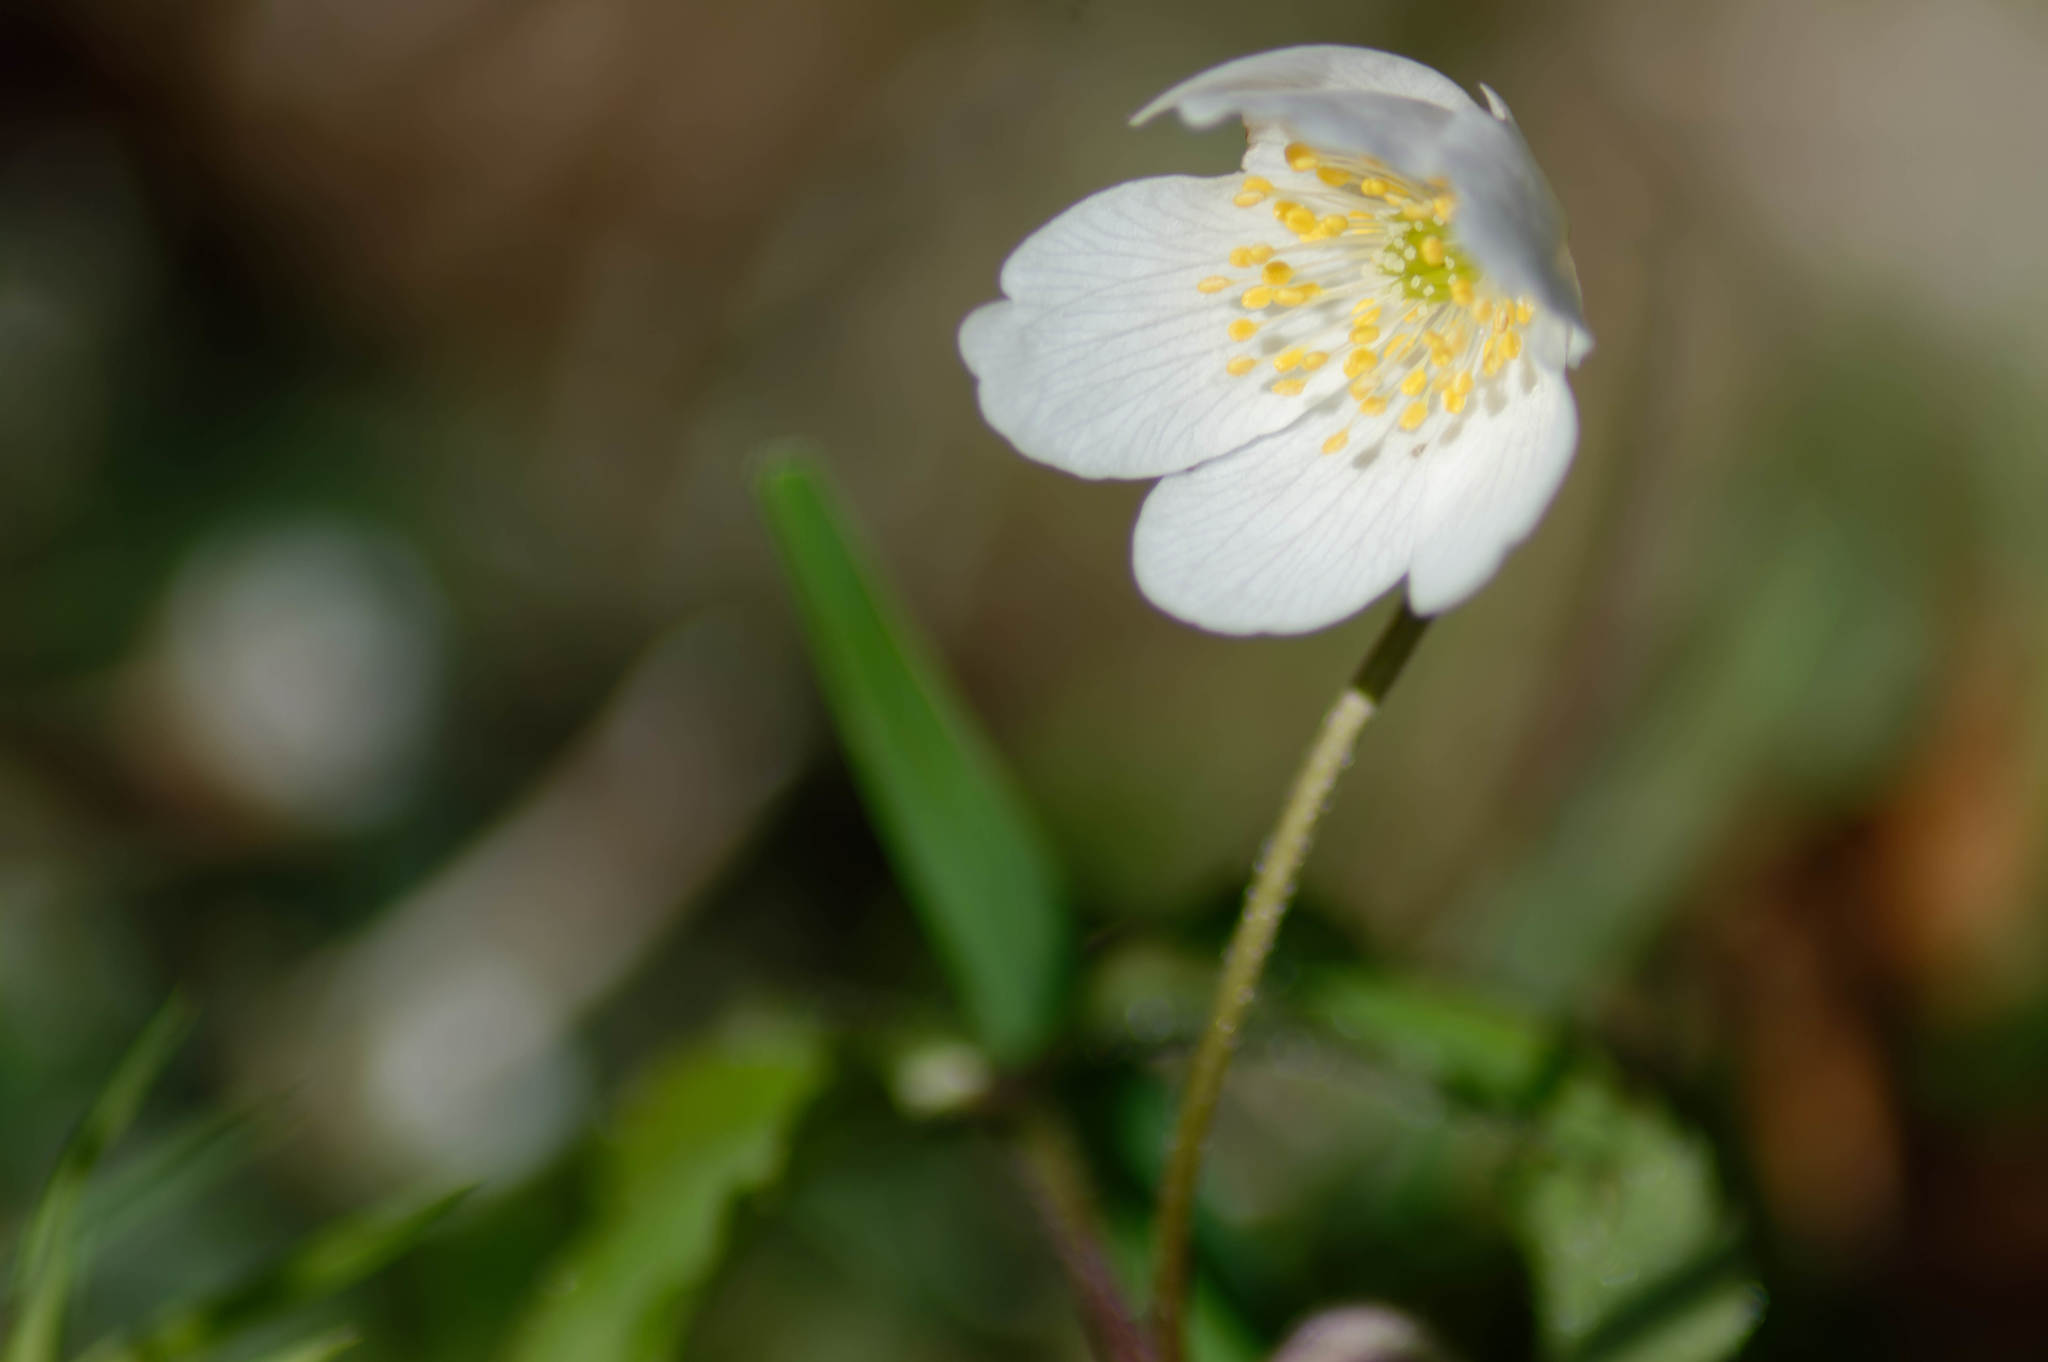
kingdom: Plantae
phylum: Tracheophyta
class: Magnoliopsida
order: Ranunculales
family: Ranunculaceae
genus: Anemone
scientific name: Anemone nemorosa
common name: Wood anemone
